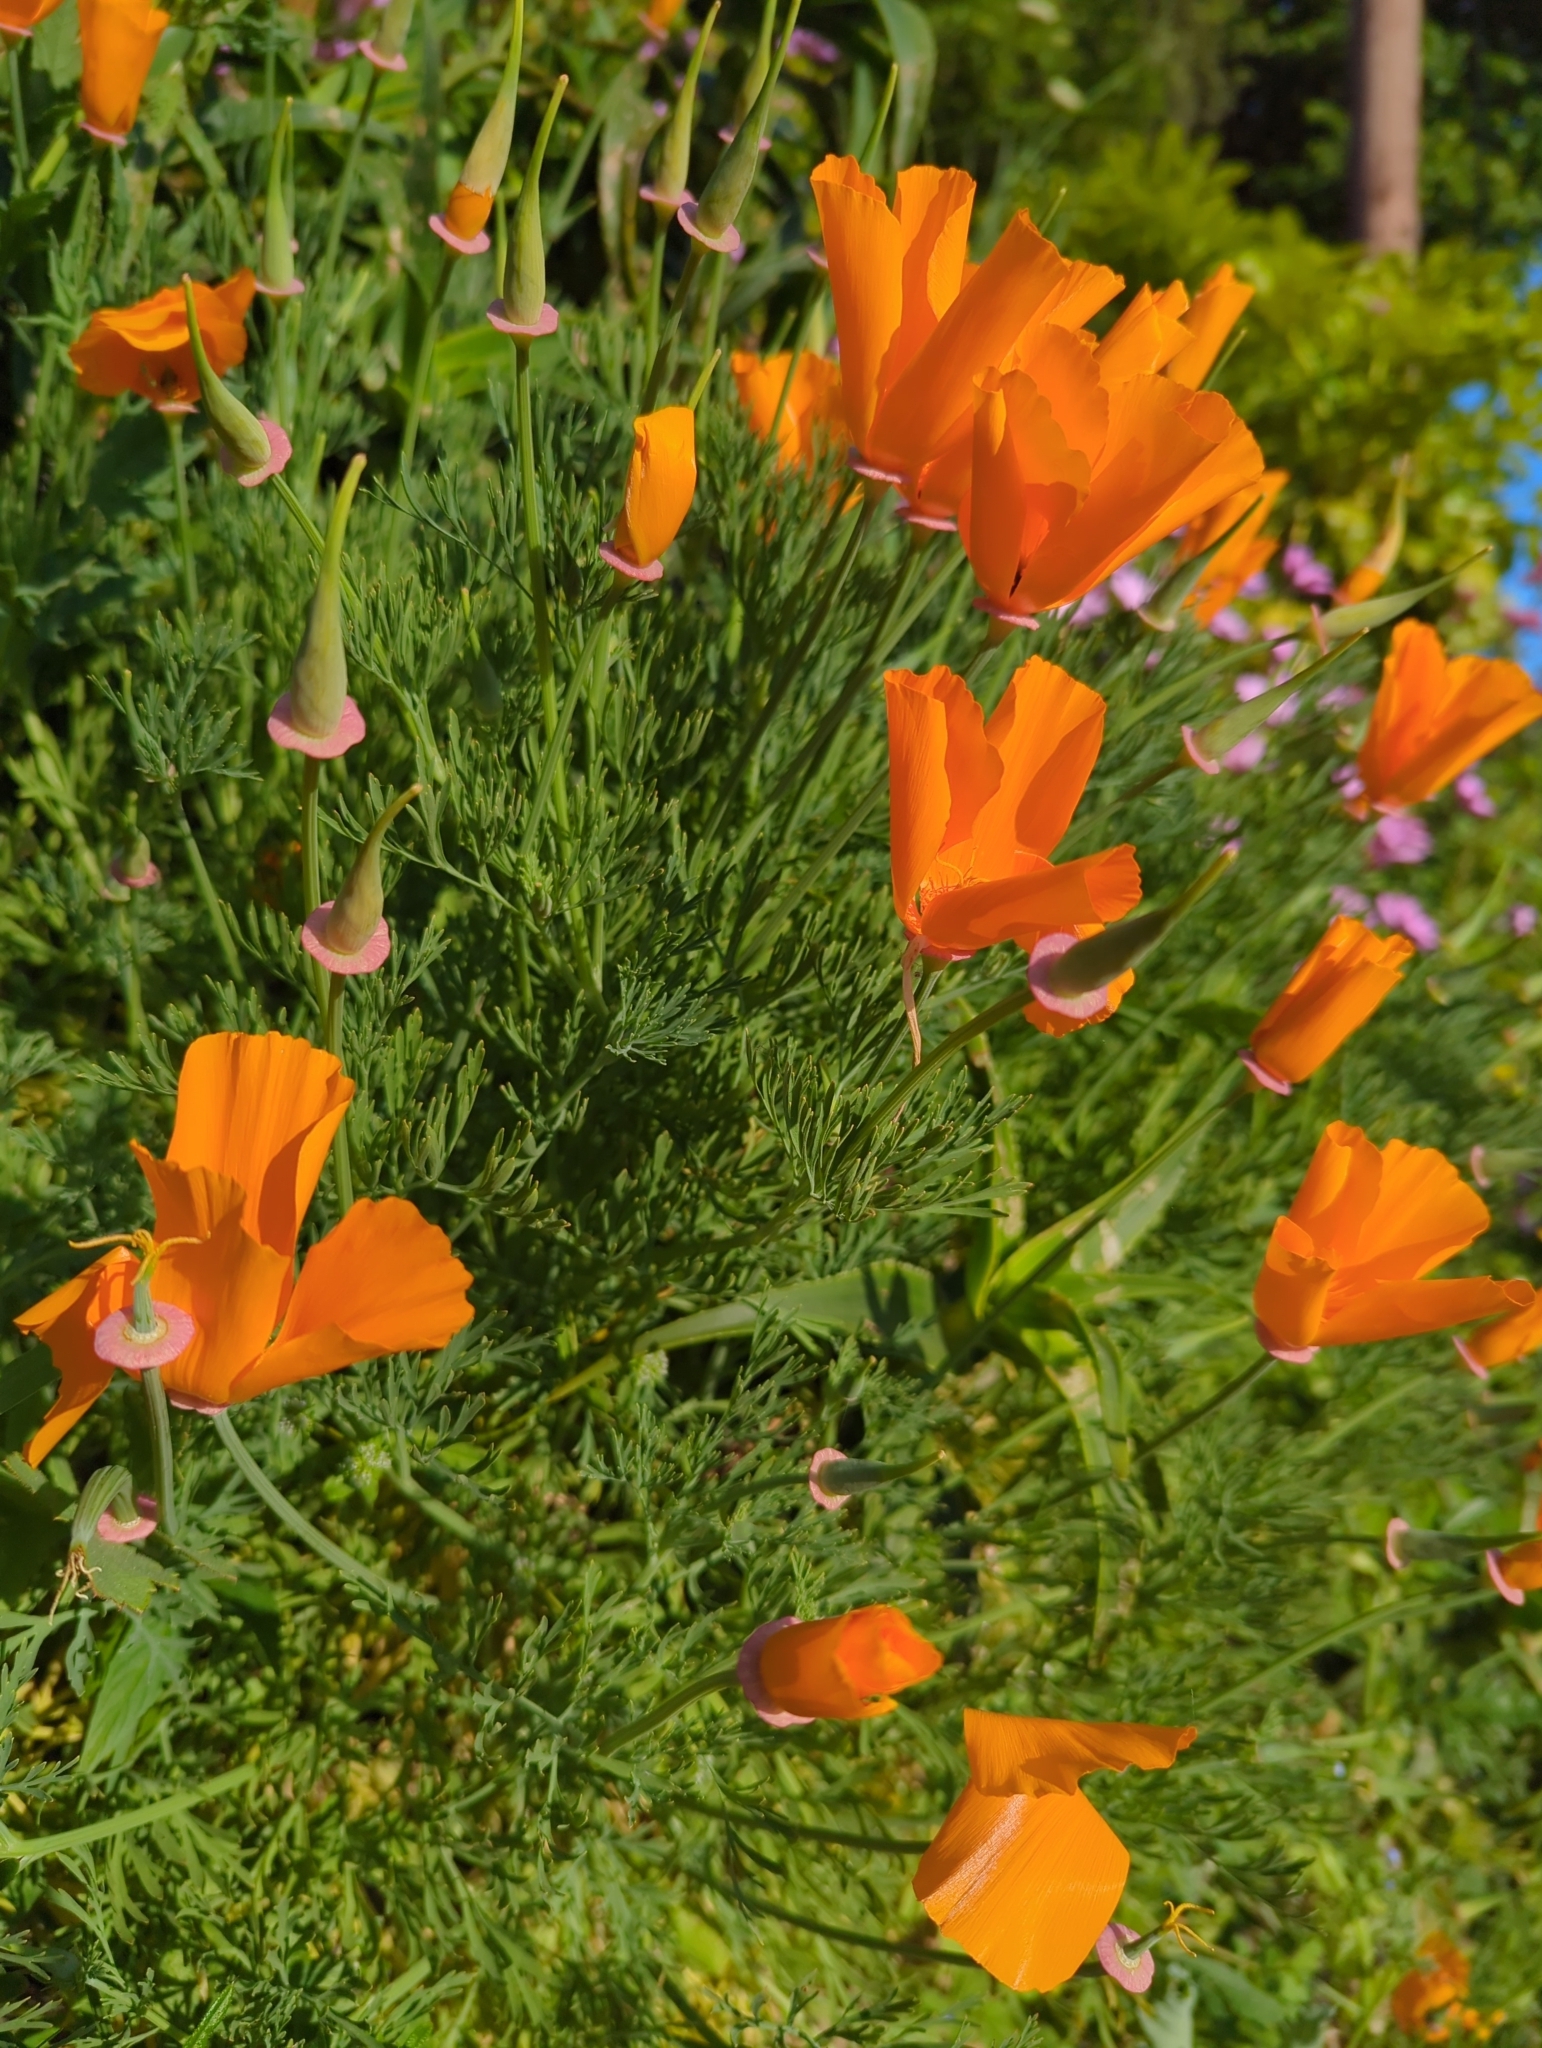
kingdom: Plantae
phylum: Tracheophyta
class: Magnoliopsida
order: Ranunculales
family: Papaveraceae
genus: Eschscholzia
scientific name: Eschscholzia californica
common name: California poppy
